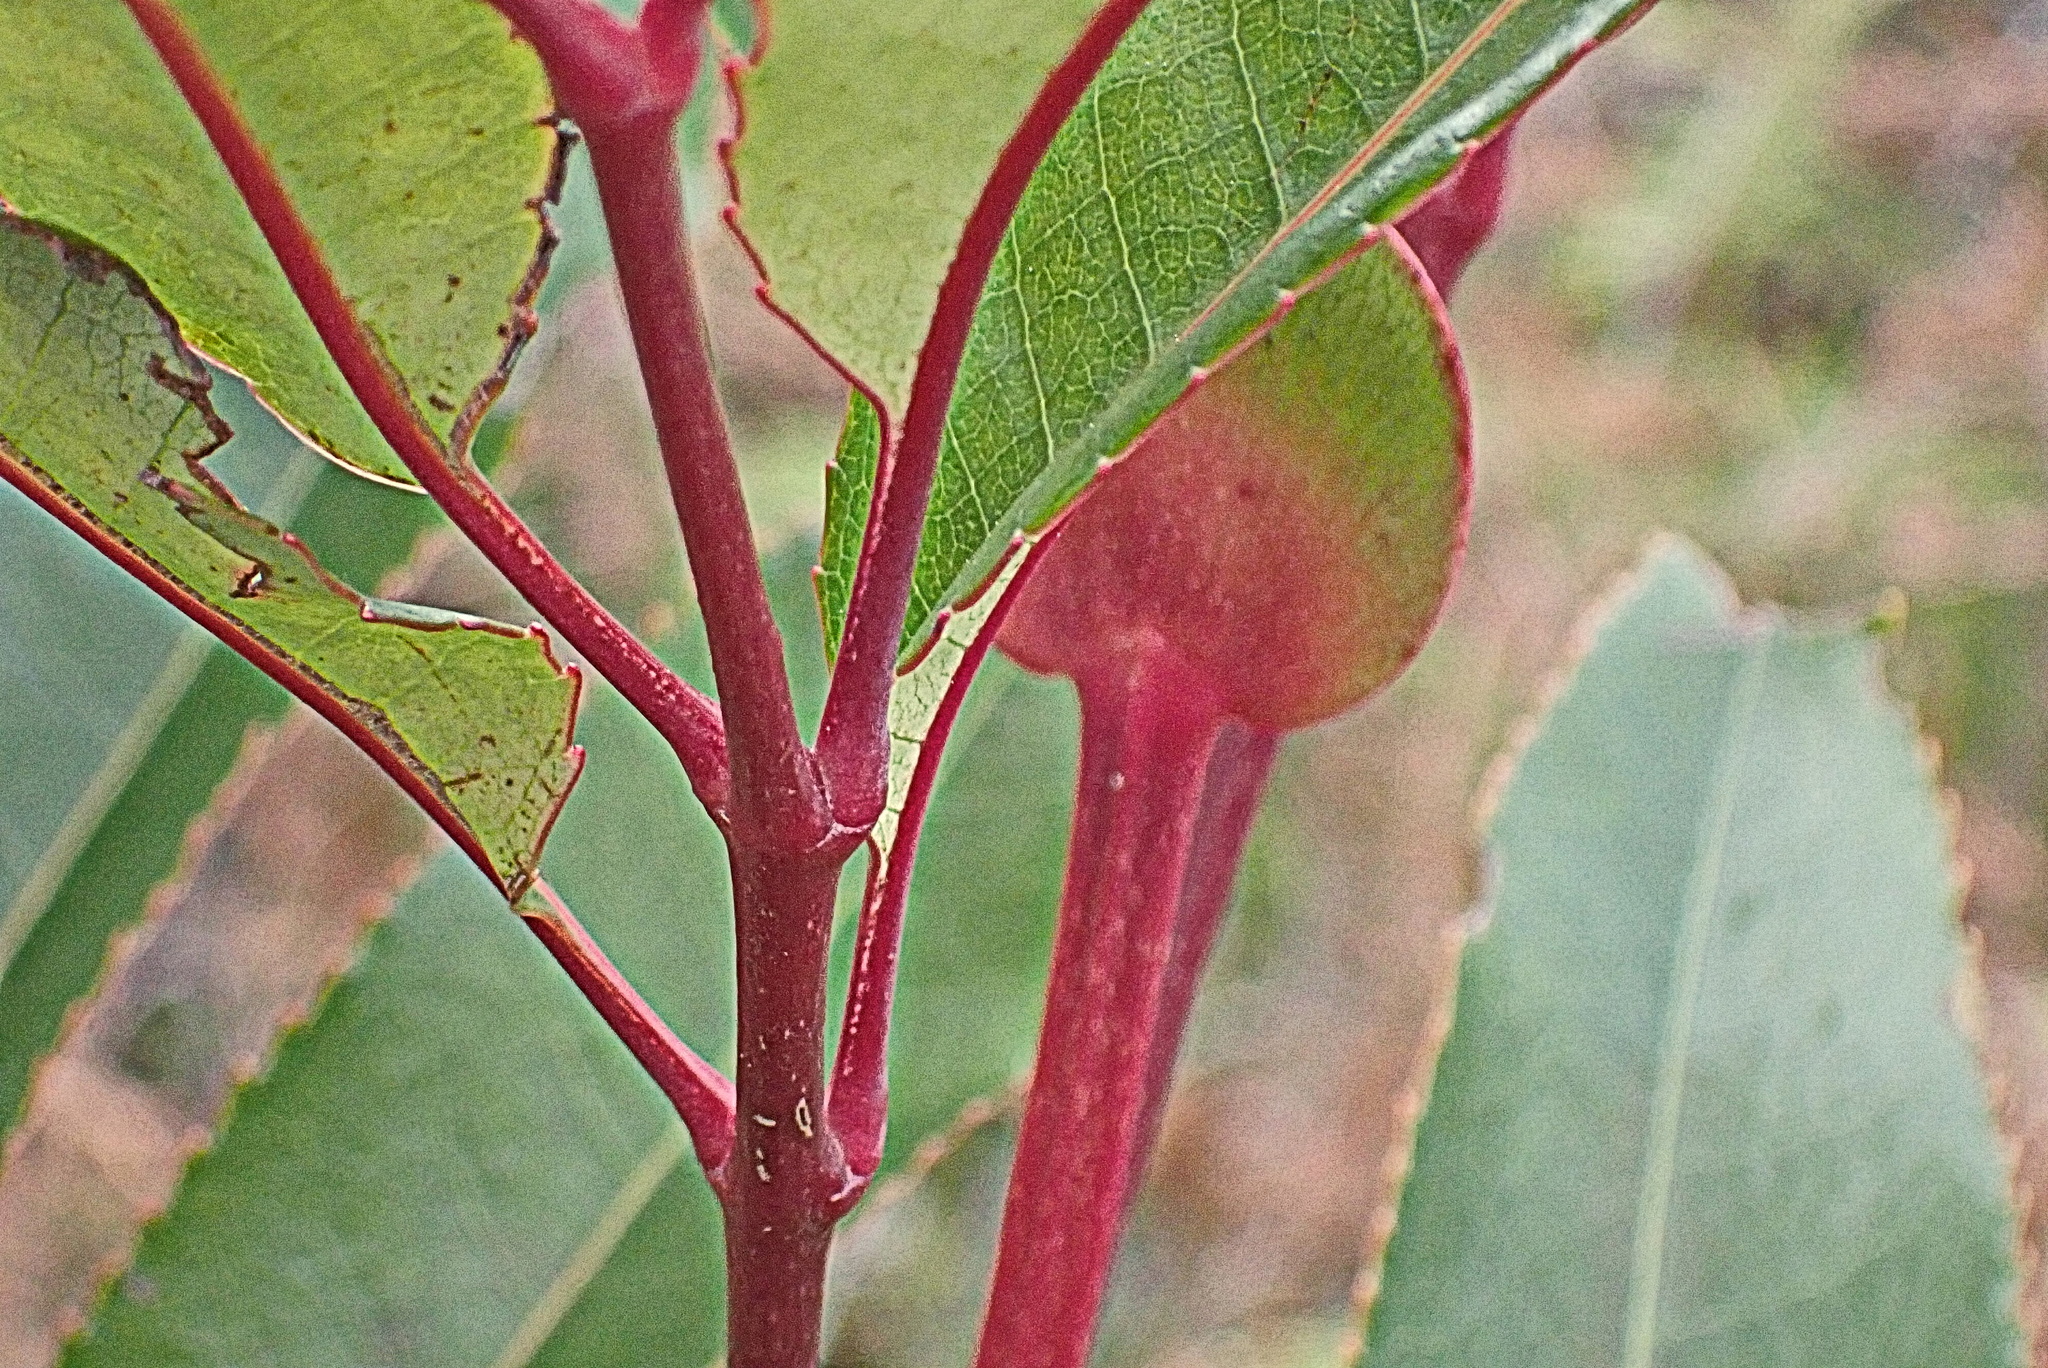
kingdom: Plantae
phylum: Tracheophyta
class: Magnoliopsida
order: Oxalidales
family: Cunoniaceae
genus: Cunonia
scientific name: Cunonia capensis
